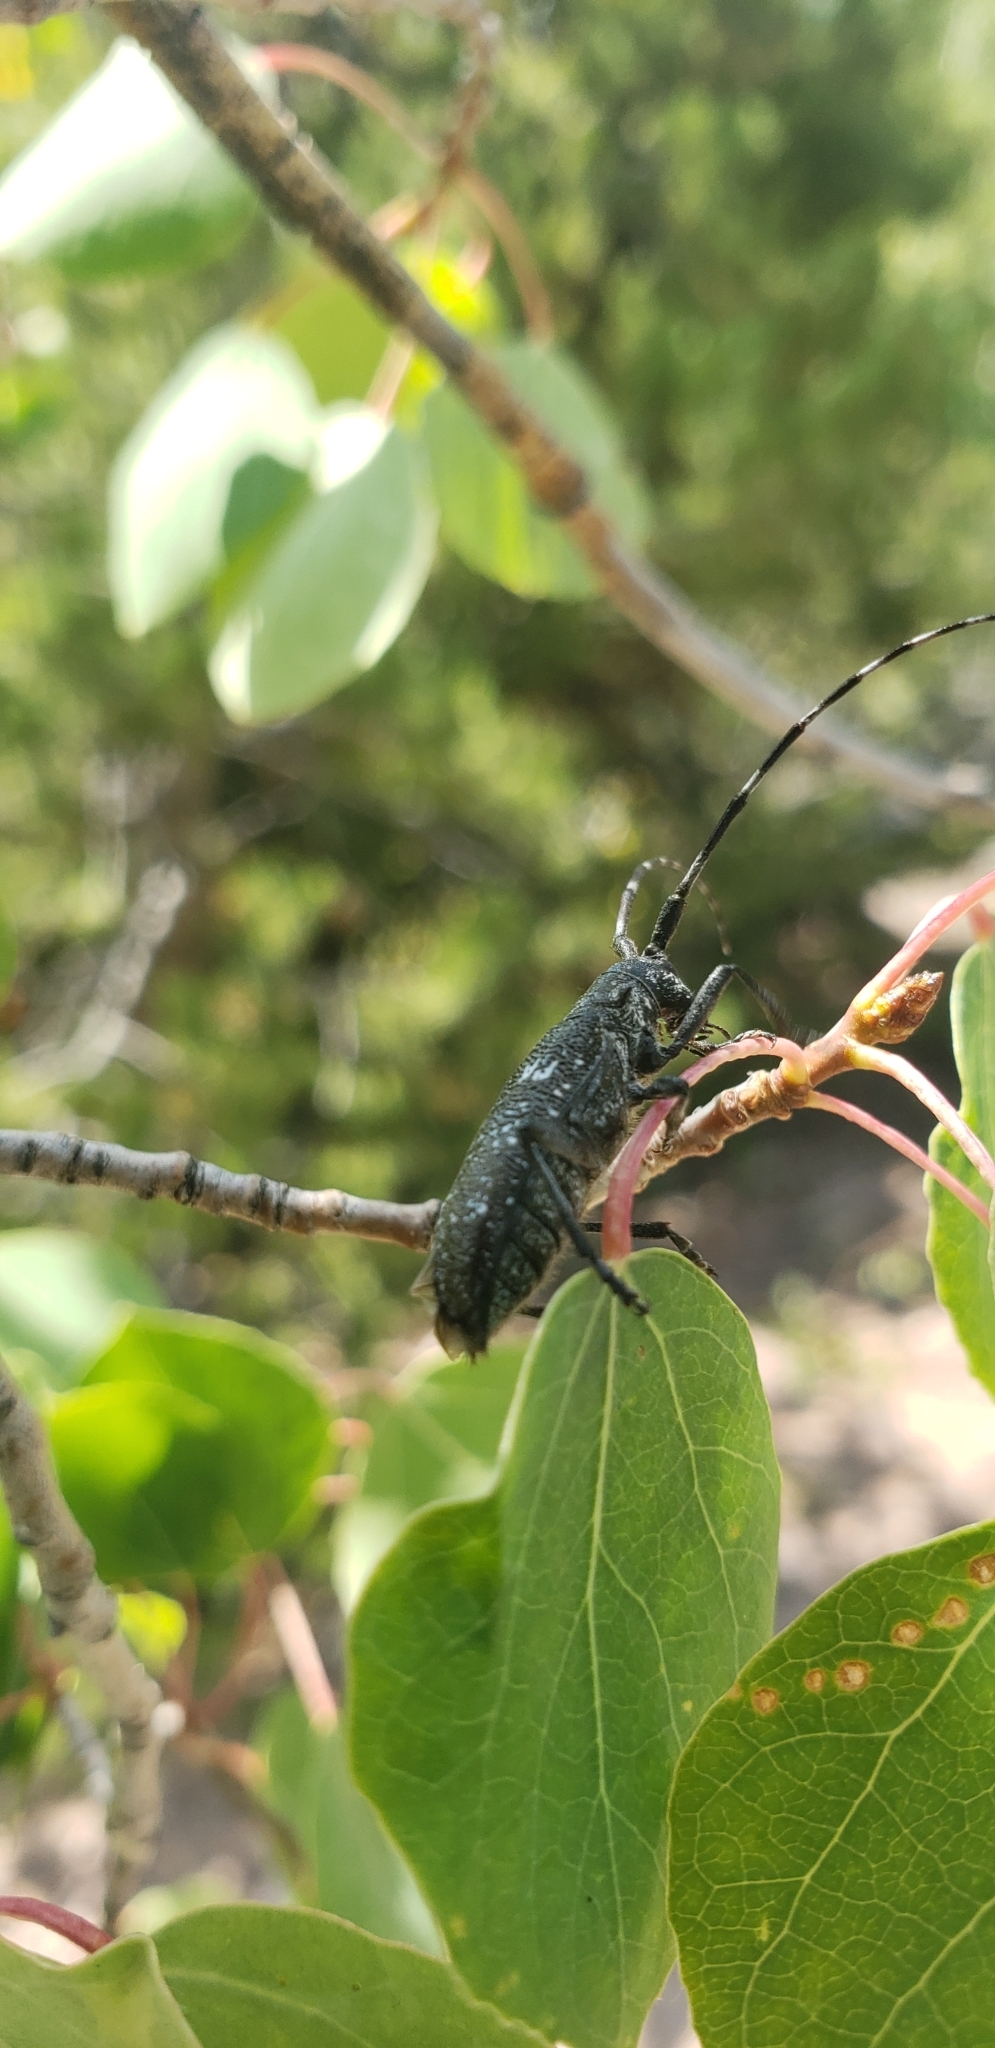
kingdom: Animalia
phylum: Arthropoda
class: Insecta
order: Coleoptera
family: Cerambycidae
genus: Monochamus
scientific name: Monochamus scutellatus
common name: White-spotted sawyer beetle
